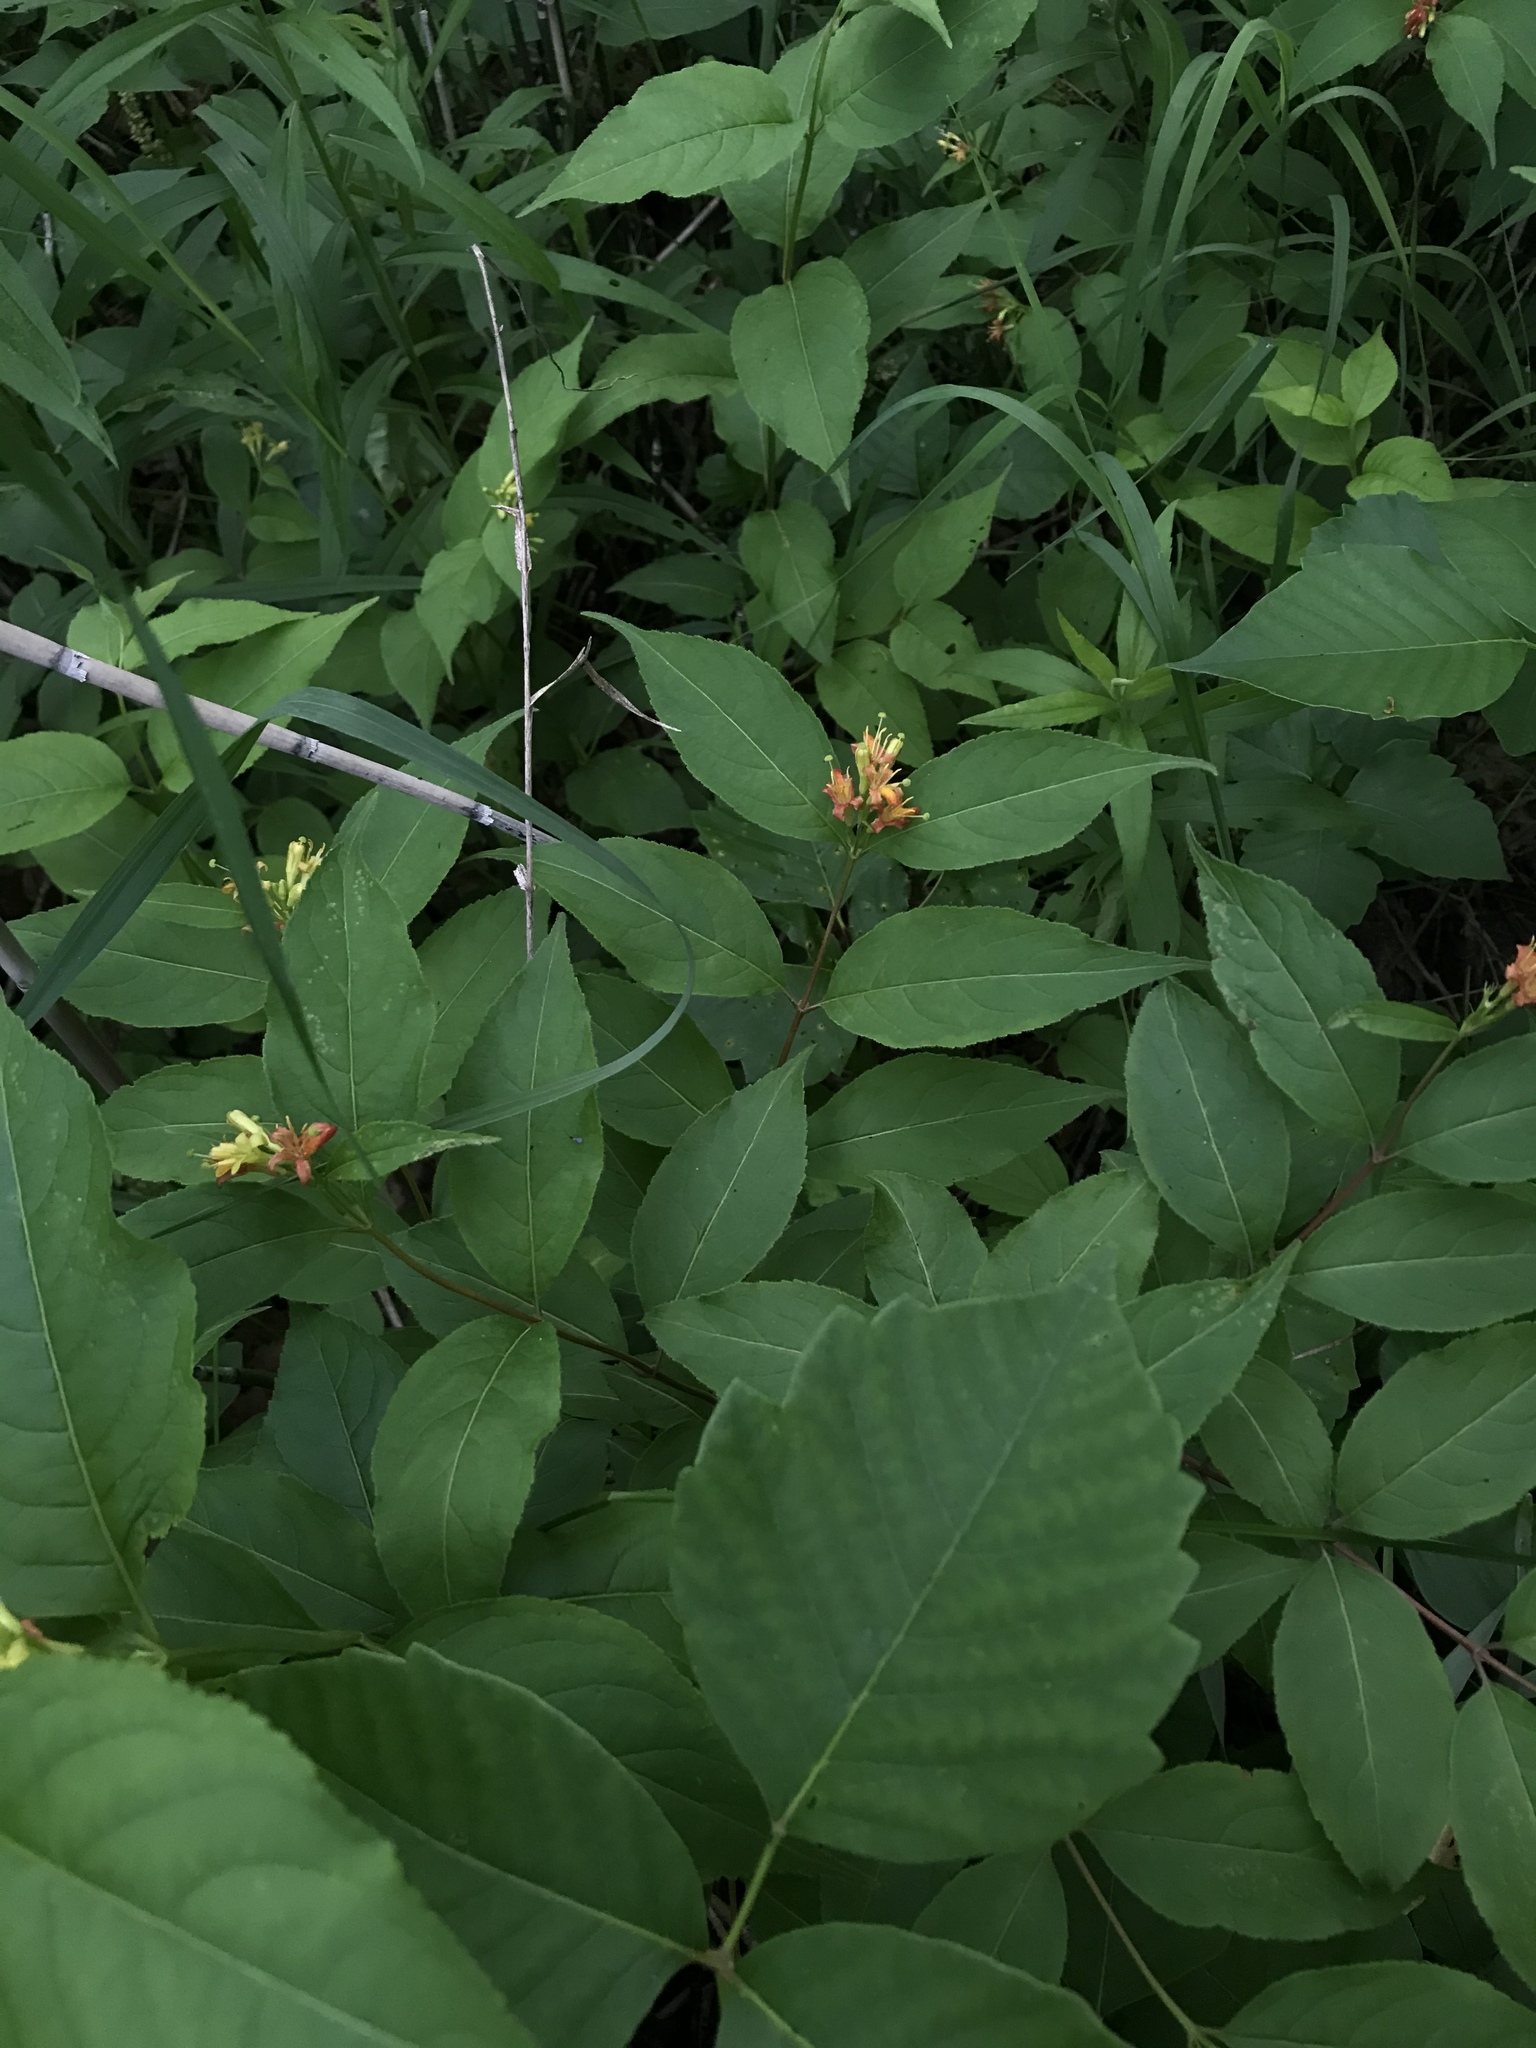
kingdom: Plantae
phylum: Tracheophyta
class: Magnoliopsida
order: Dipsacales
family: Caprifoliaceae
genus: Diervilla
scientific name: Diervilla lonicera
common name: Bush-honeysuckle
